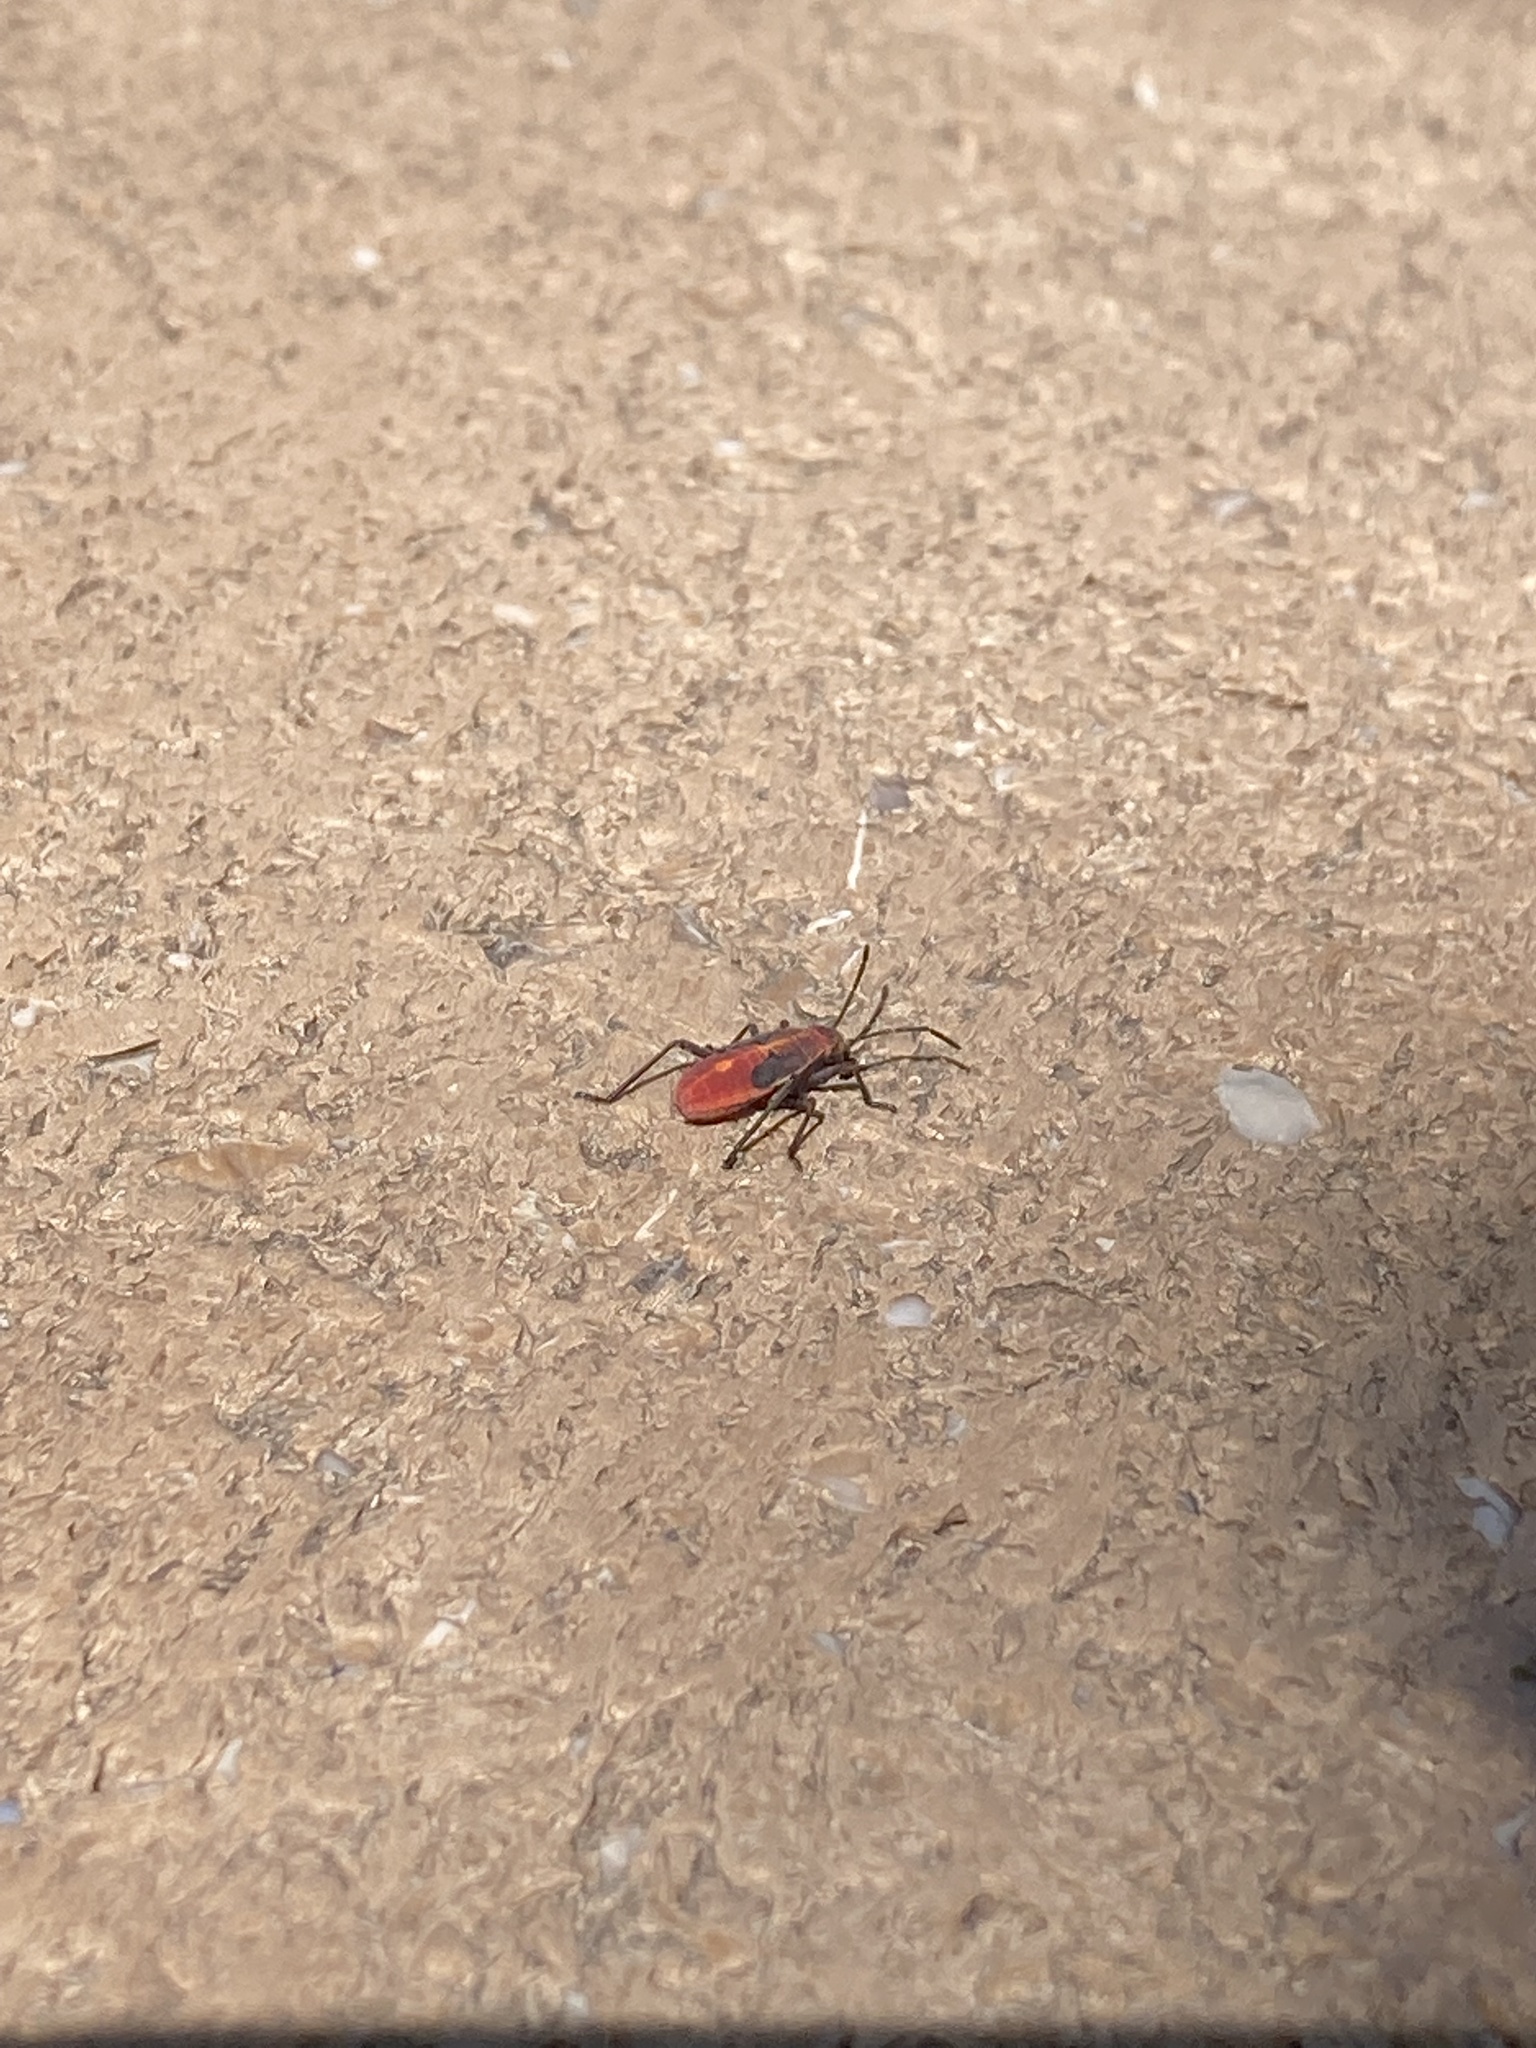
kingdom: Animalia
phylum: Arthropoda
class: Insecta
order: Hemiptera
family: Rhopalidae
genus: Boisea
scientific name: Boisea trivittata
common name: Boxelder bug
